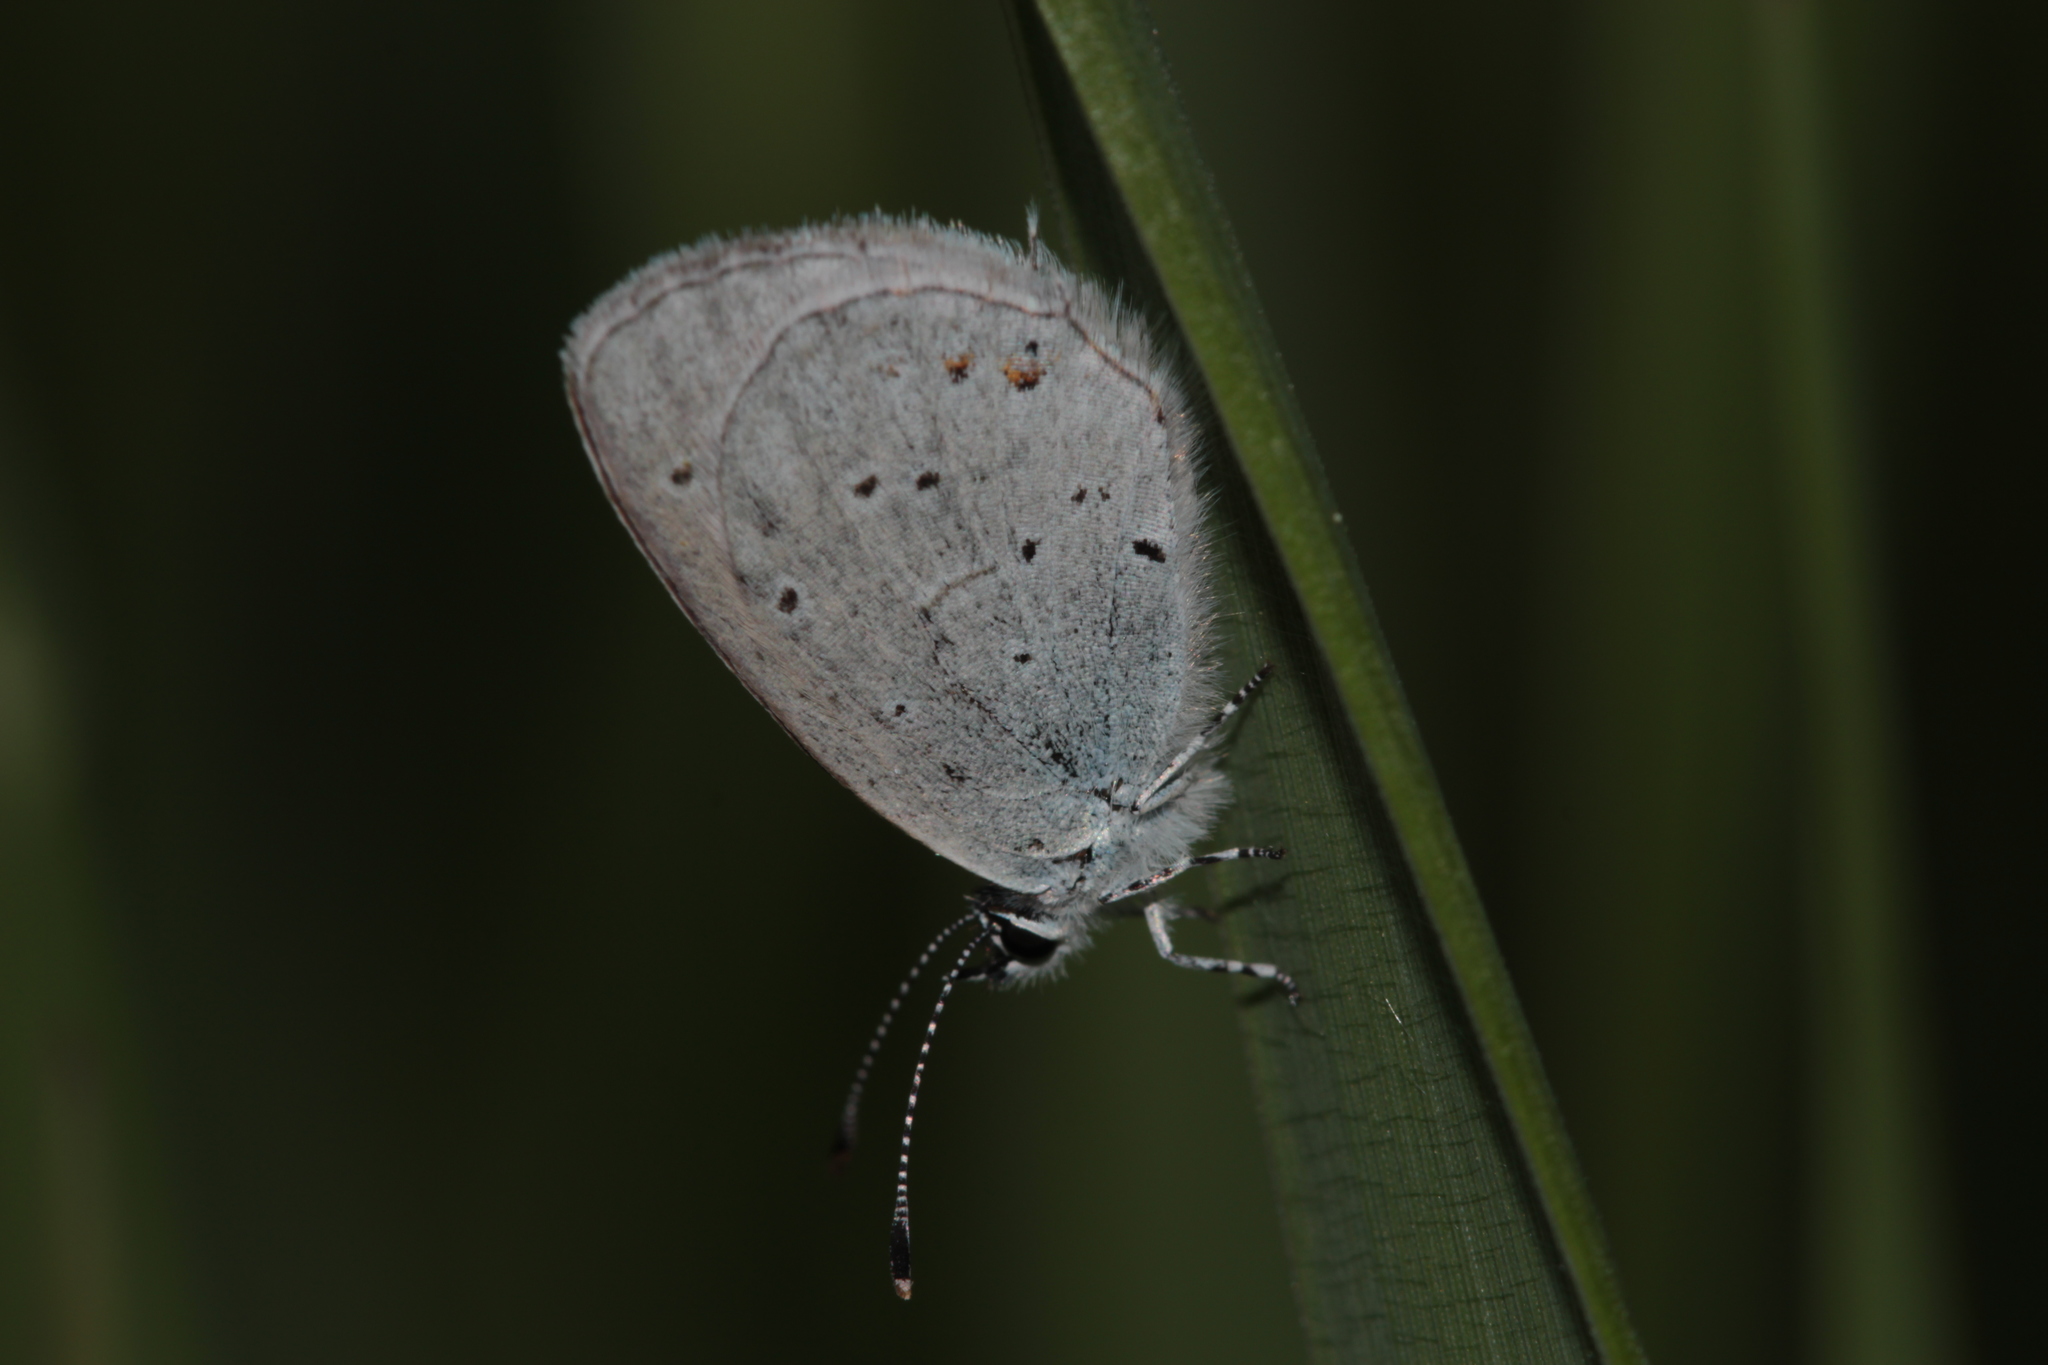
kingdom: Animalia
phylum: Arthropoda
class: Insecta
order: Lepidoptera
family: Lycaenidae
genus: Elkalyce
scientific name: Elkalyce argiades
